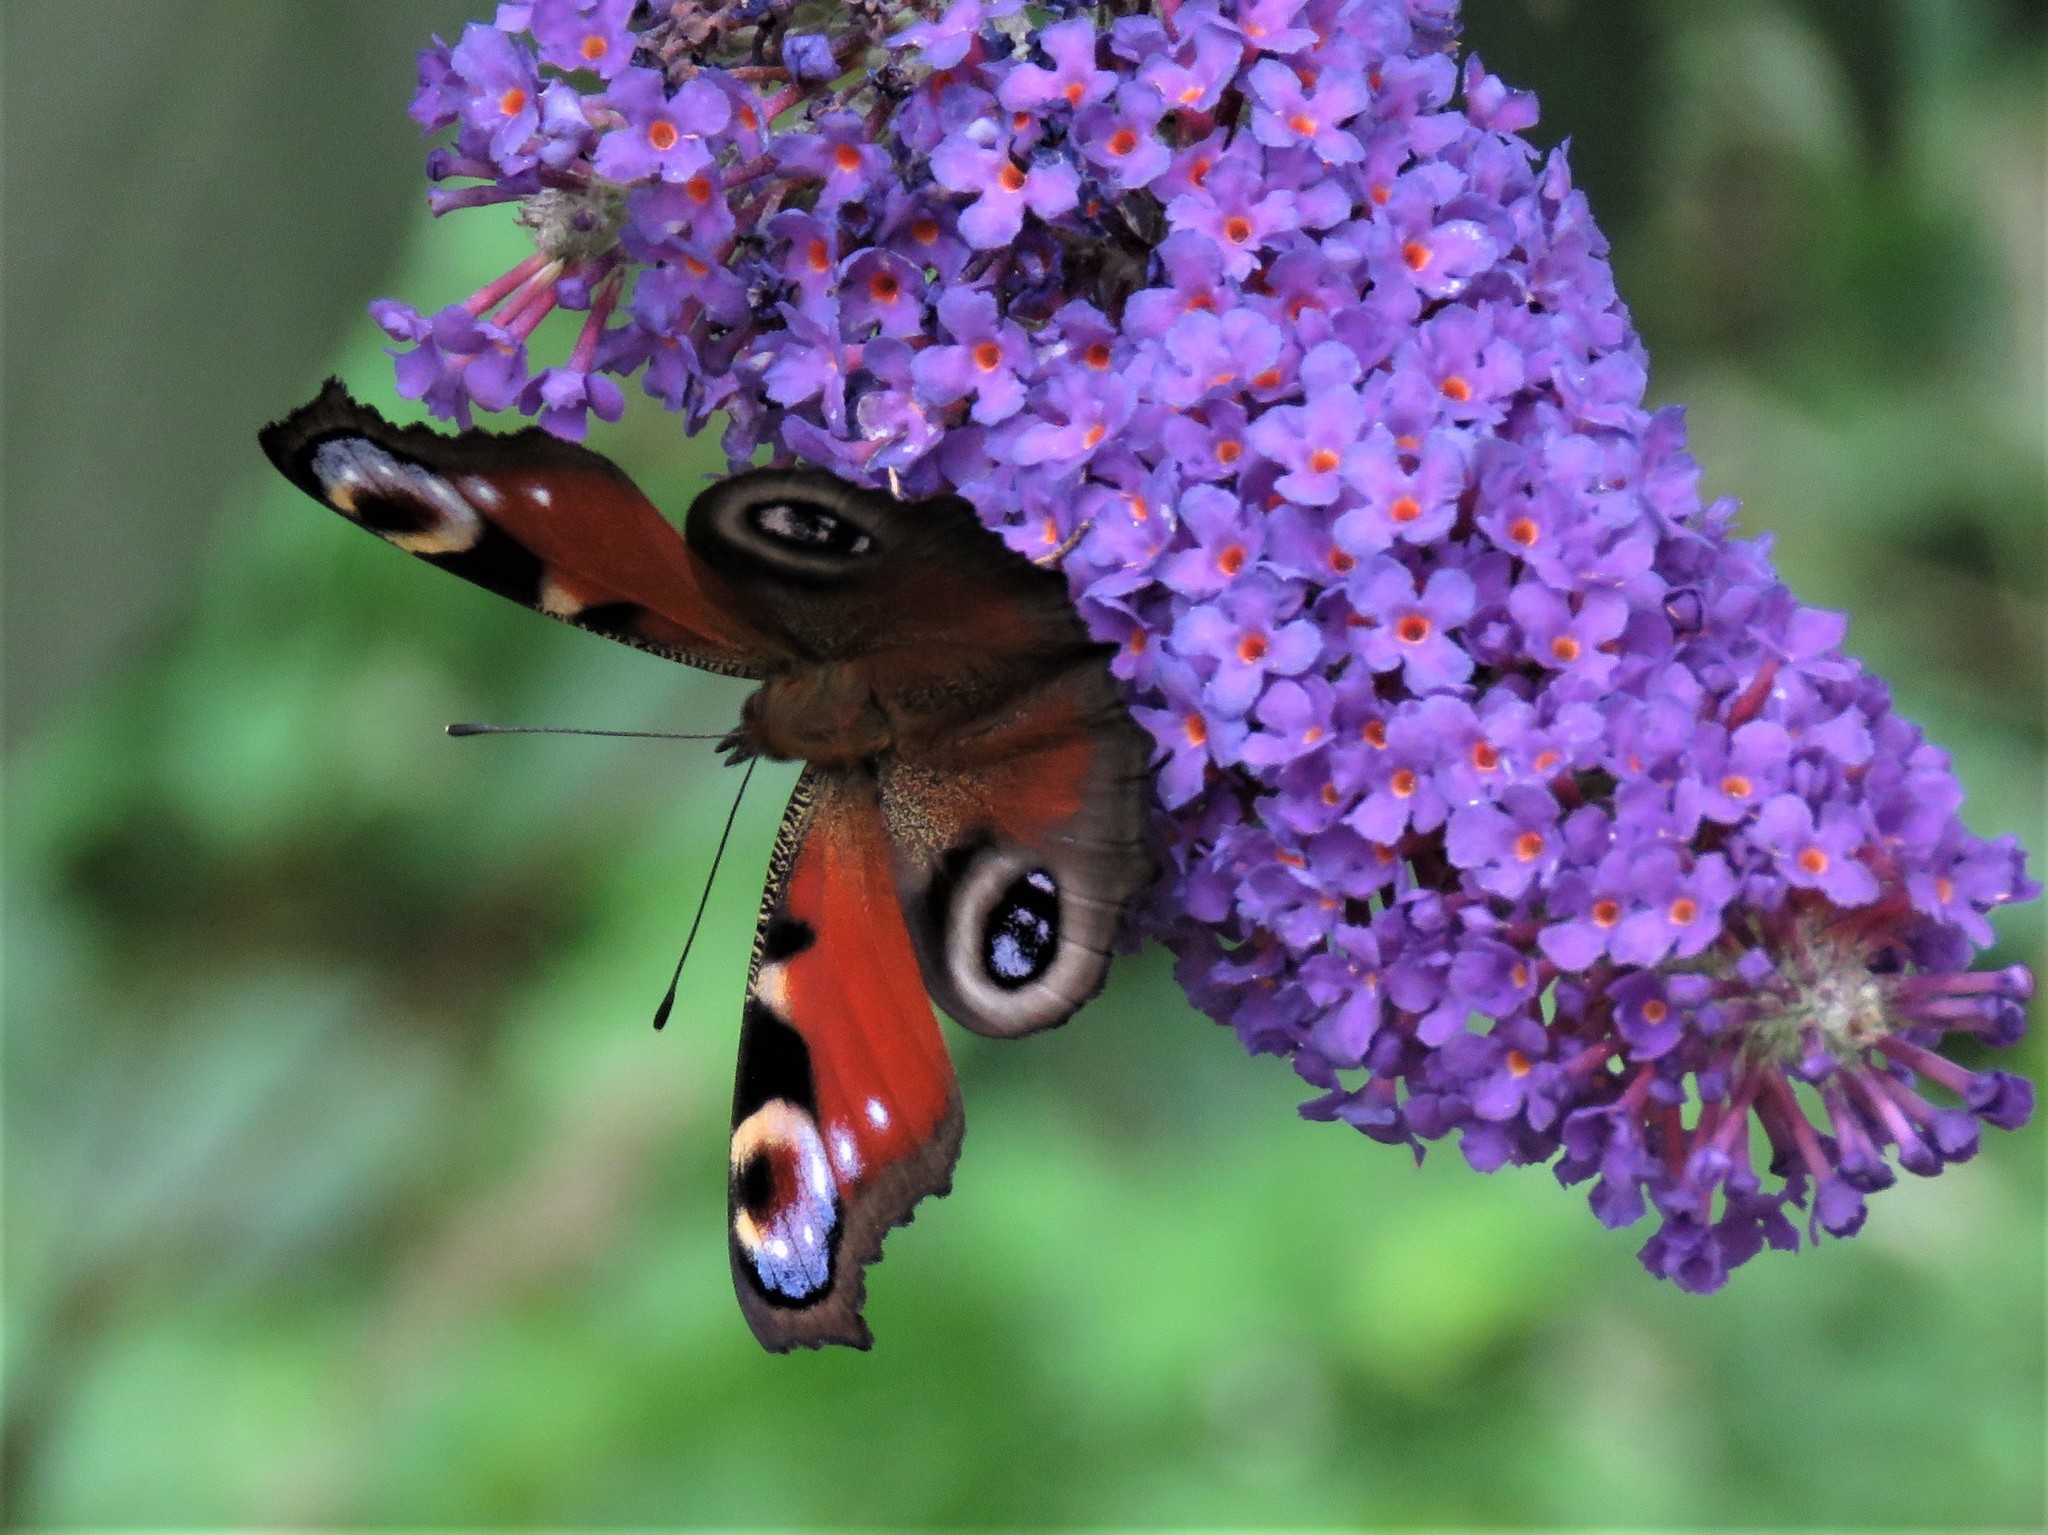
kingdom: Animalia
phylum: Arthropoda
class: Insecta
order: Lepidoptera
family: Nymphalidae
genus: Aglais
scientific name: Aglais io
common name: Peacock
